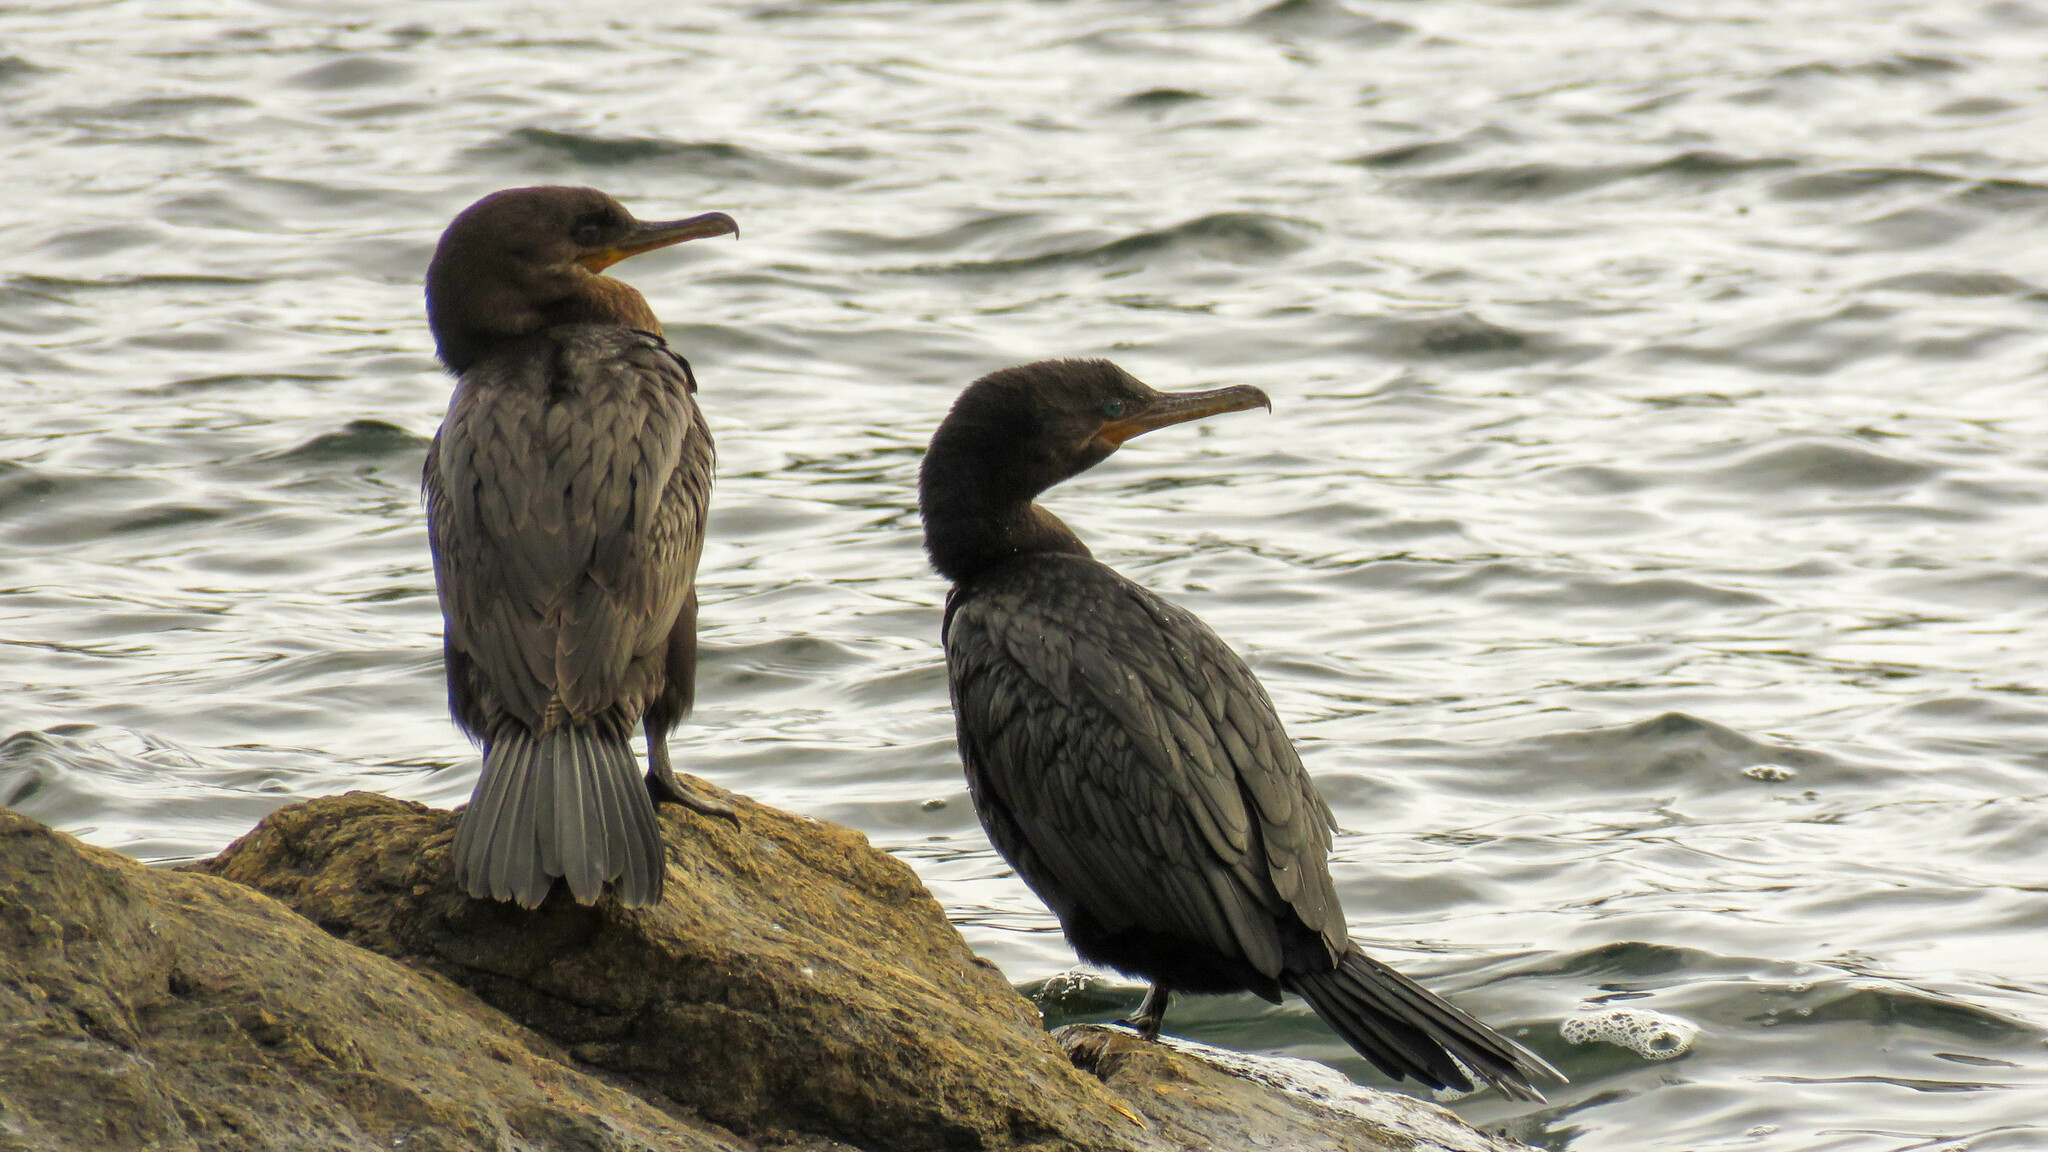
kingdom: Animalia
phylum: Chordata
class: Aves
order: Suliformes
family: Phalacrocoracidae
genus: Phalacrocorax
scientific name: Phalacrocorax brasilianus
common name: Neotropic cormorant
